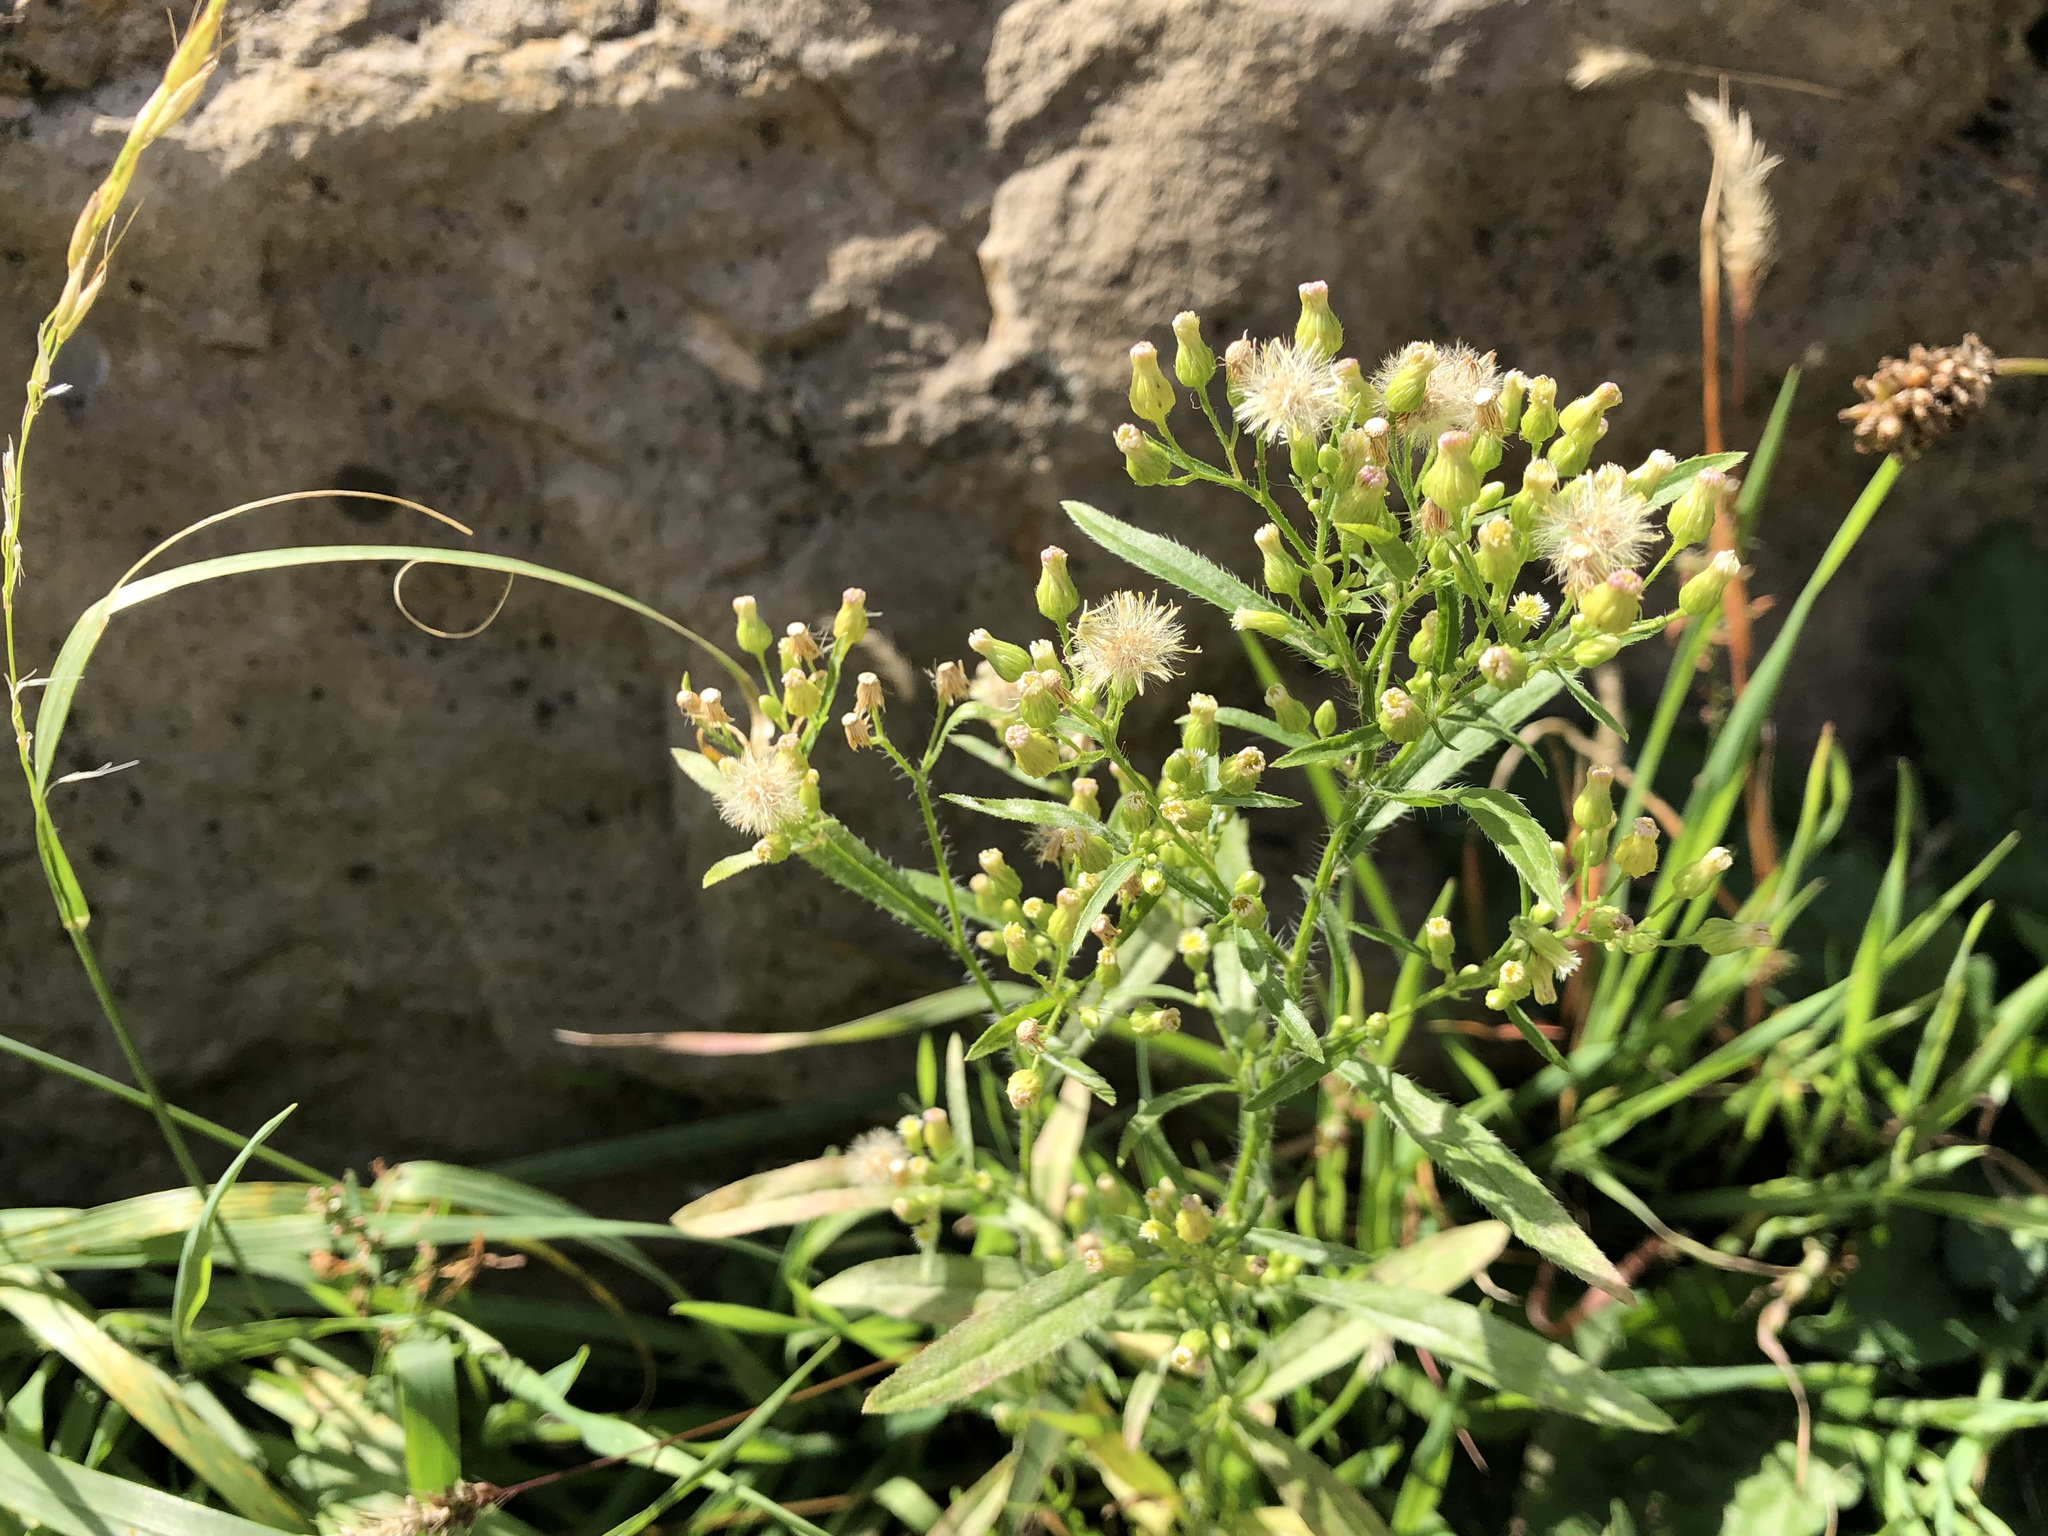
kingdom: Plantae
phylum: Tracheophyta
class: Magnoliopsida
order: Asterales
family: Asteraceae
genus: Erigeron
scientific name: Erigeron canadensis
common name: Canadian fleabane
